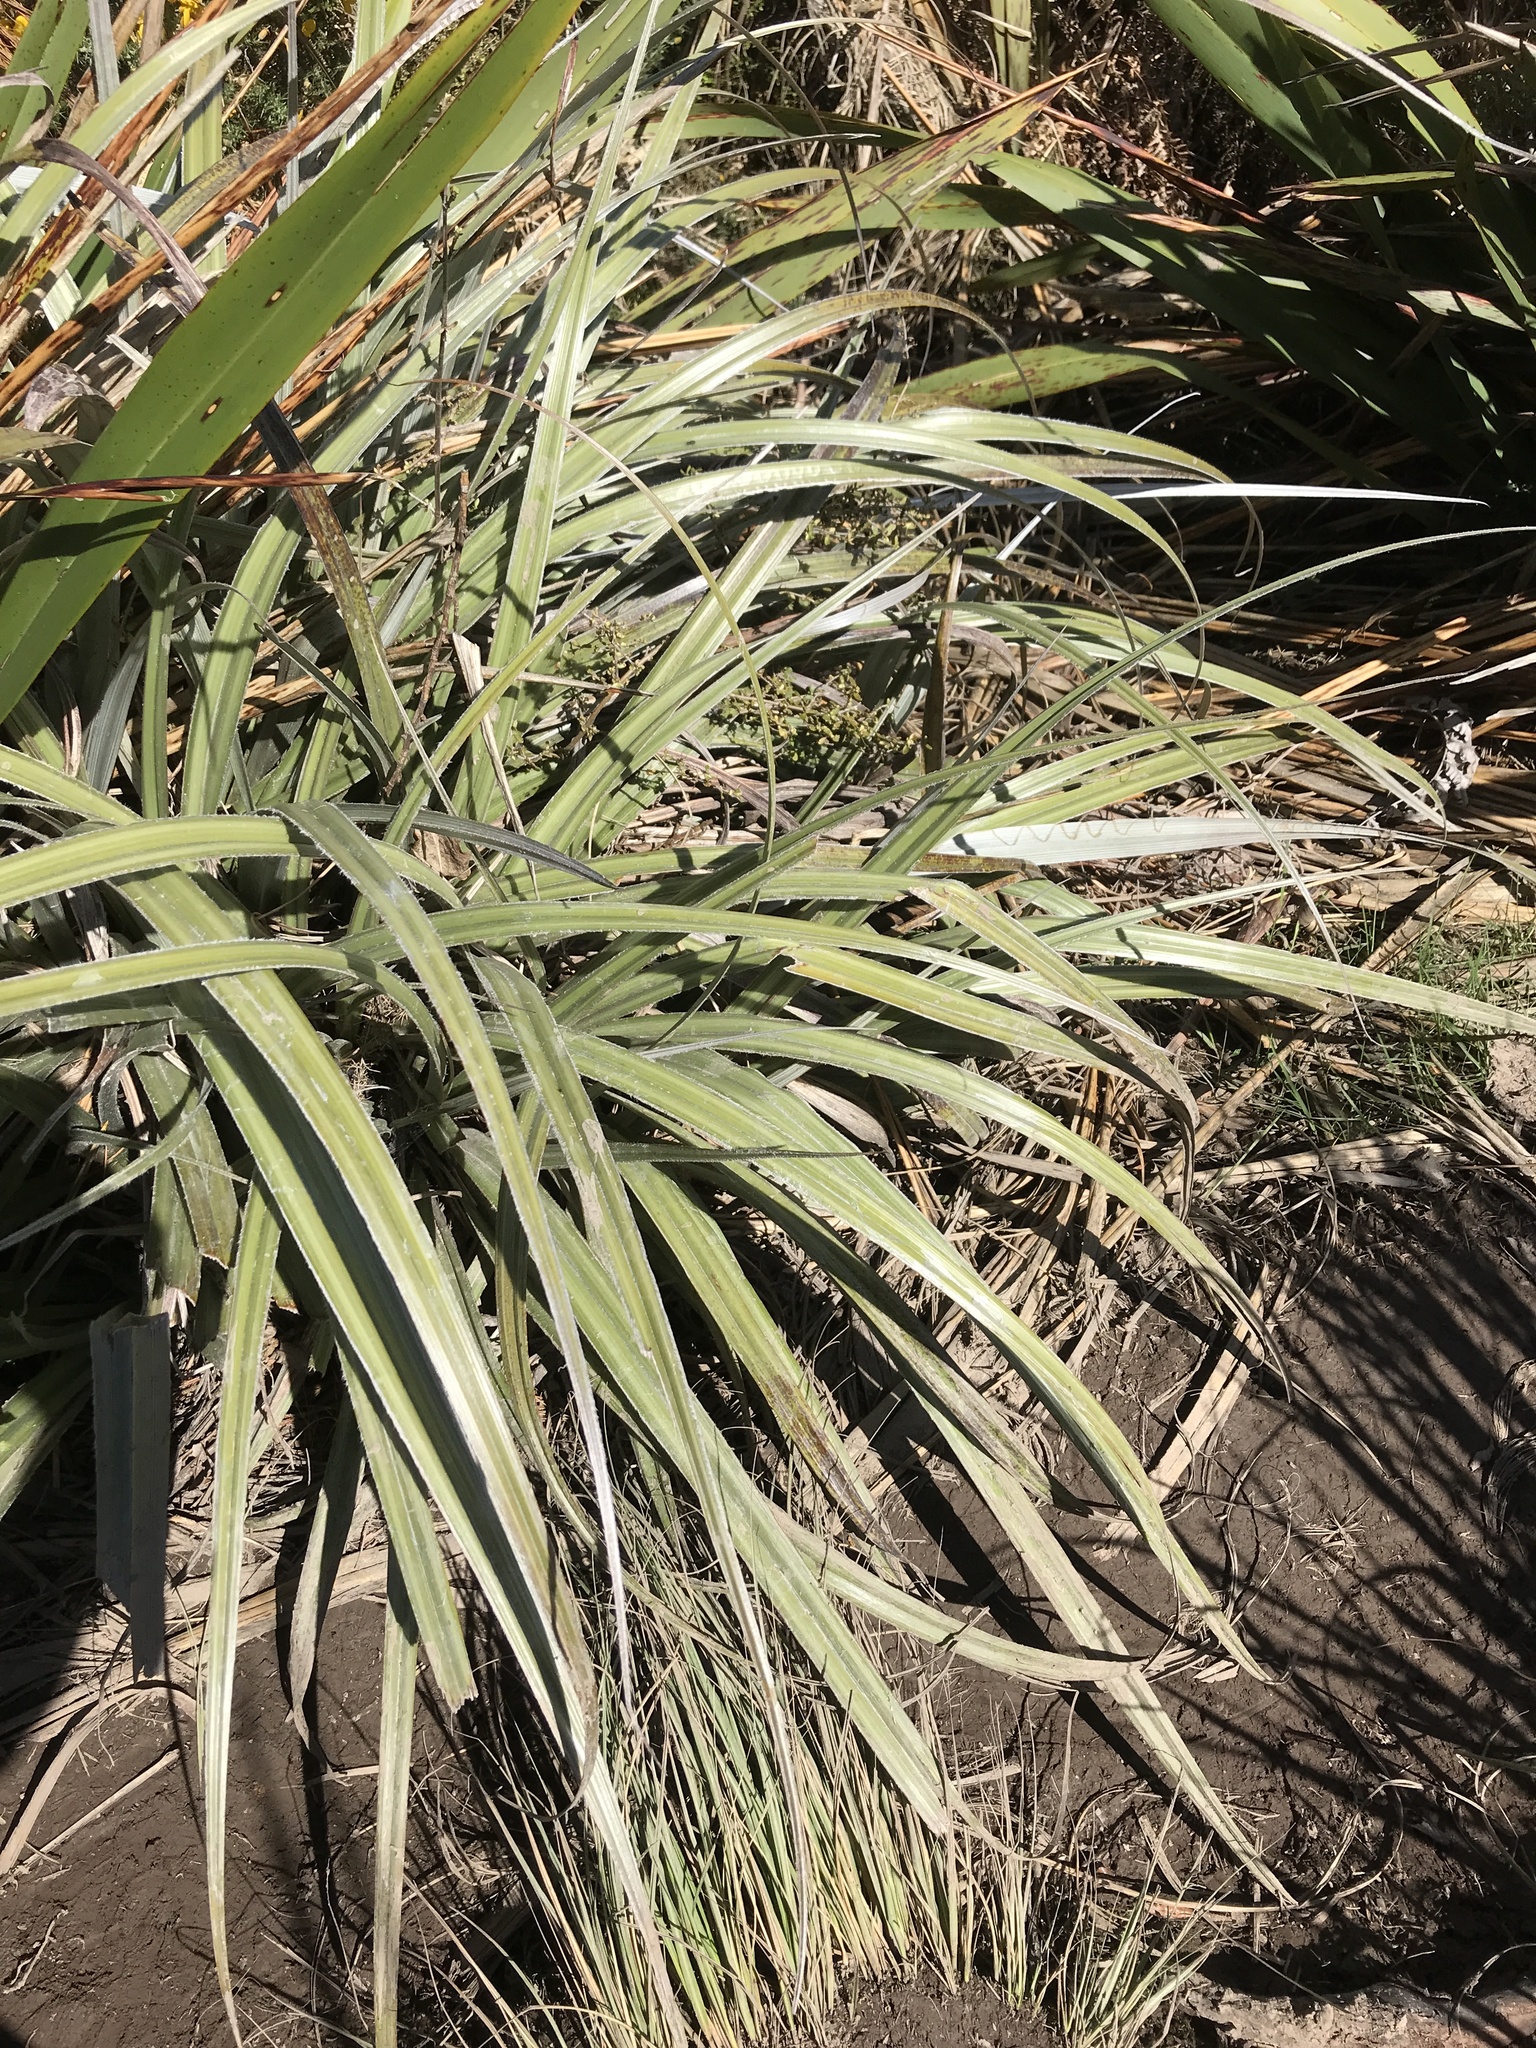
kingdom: Plantae
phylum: Tracheophyta
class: Liliopsida
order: Asparagales
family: Asteliaceae
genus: Astelia
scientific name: Astelia nervosa
